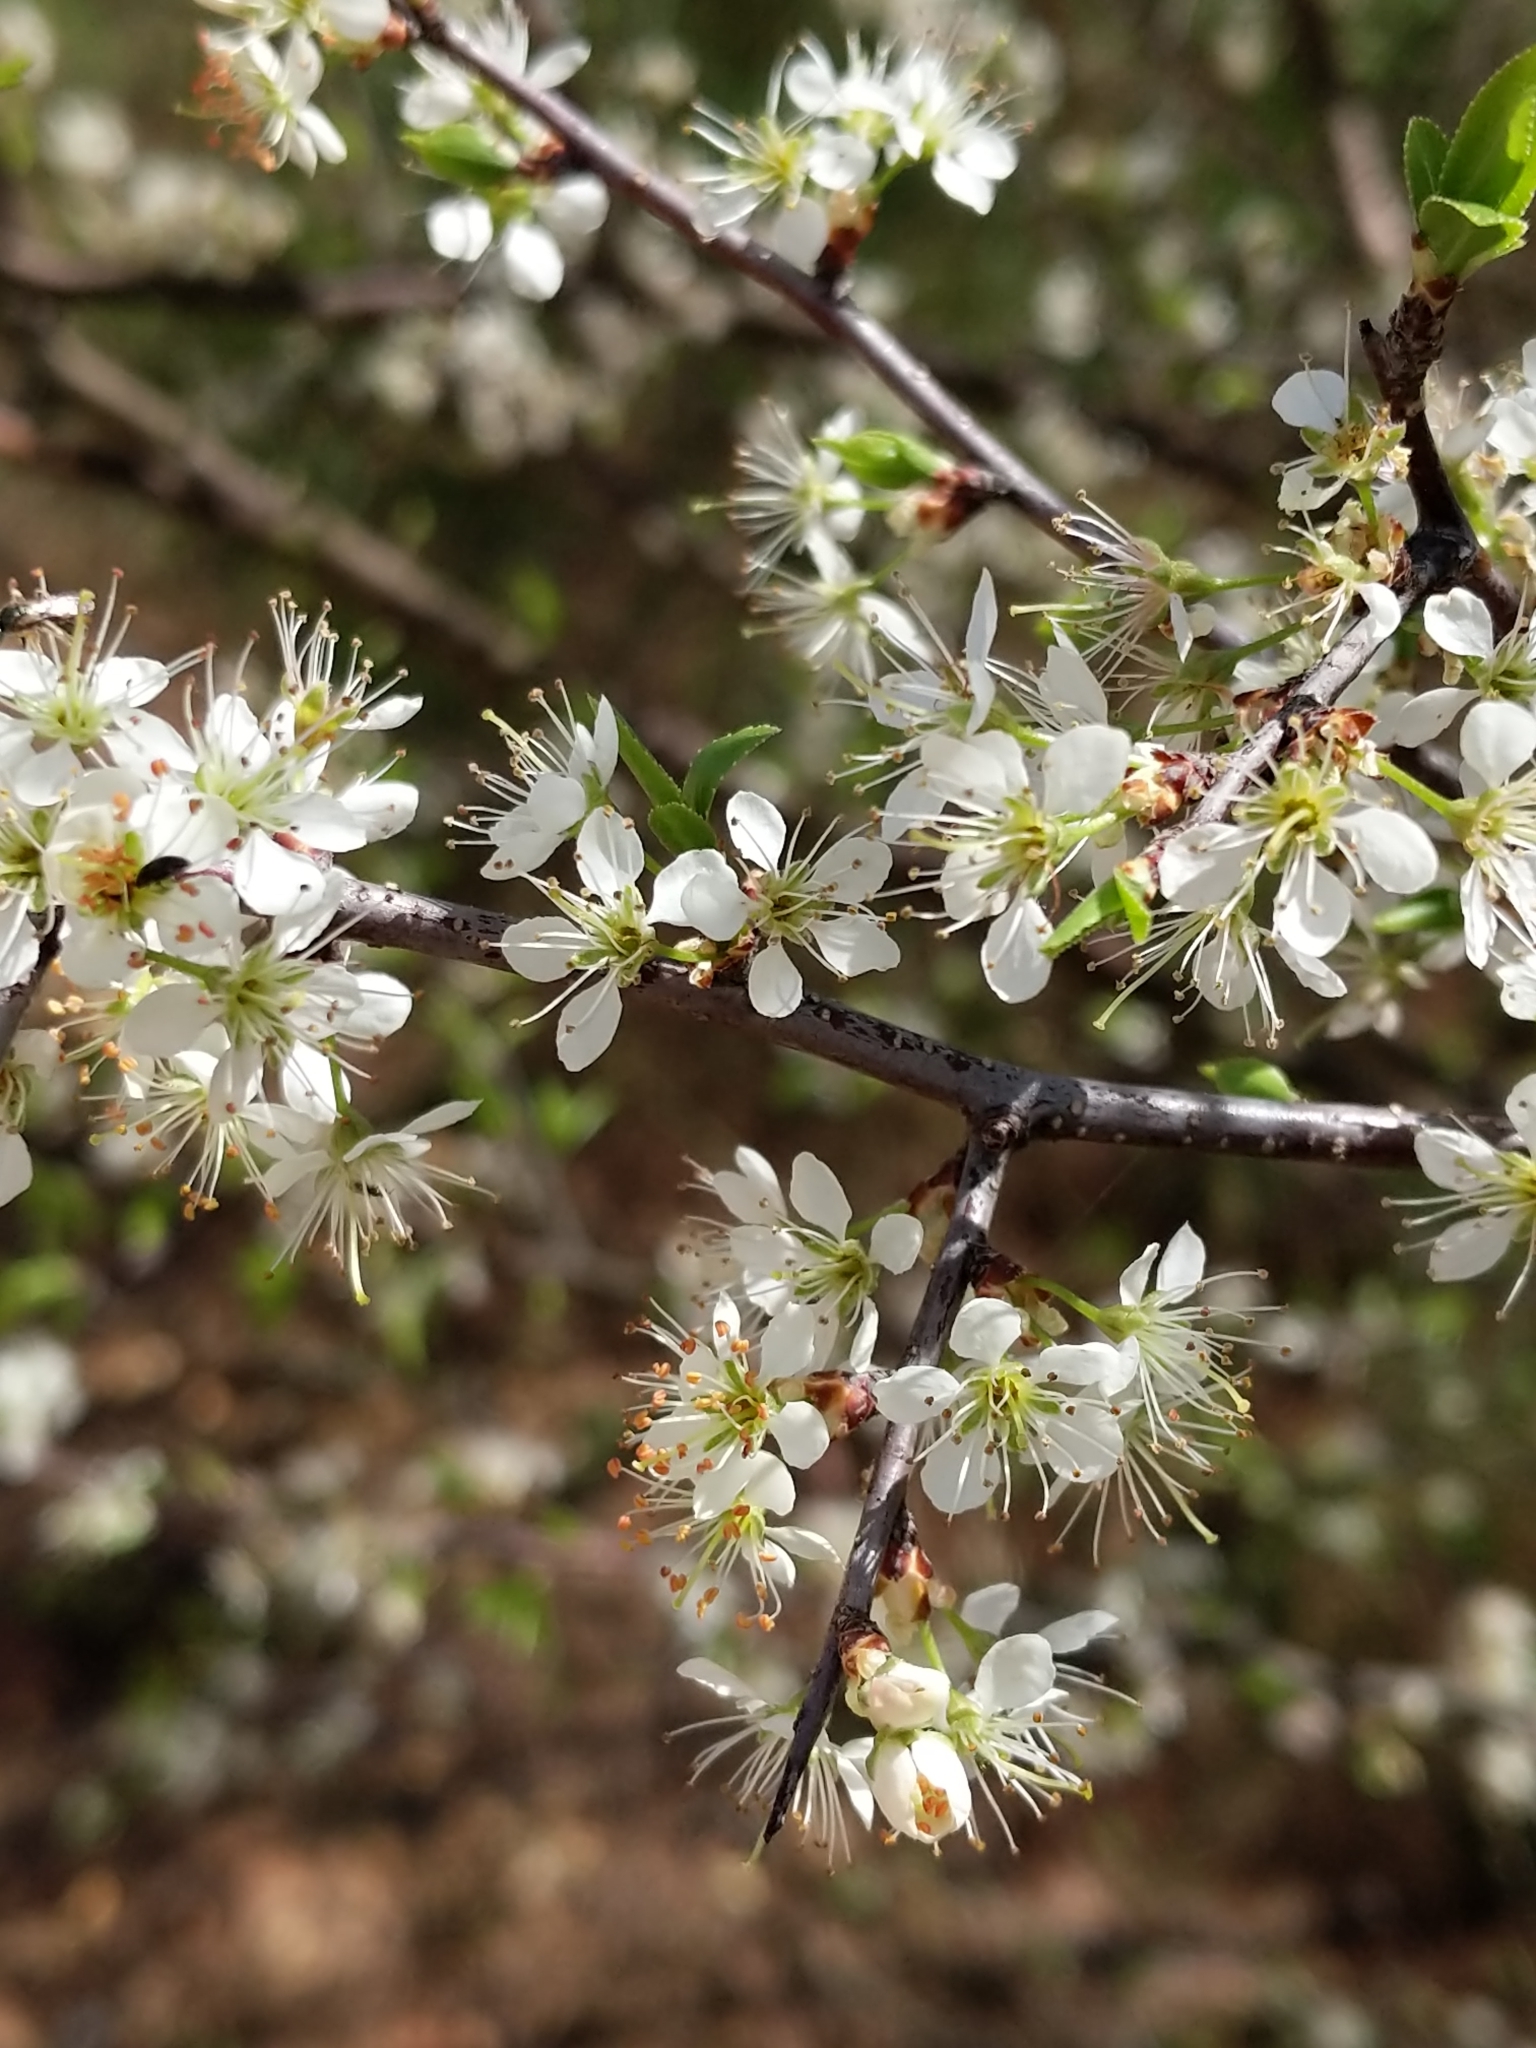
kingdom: Plantae
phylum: Tracheophyta
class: Magnoliopsida
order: Rosales
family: Rosaceae
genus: Prunus
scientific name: Prunus angustifolia
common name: Cherokee plum
